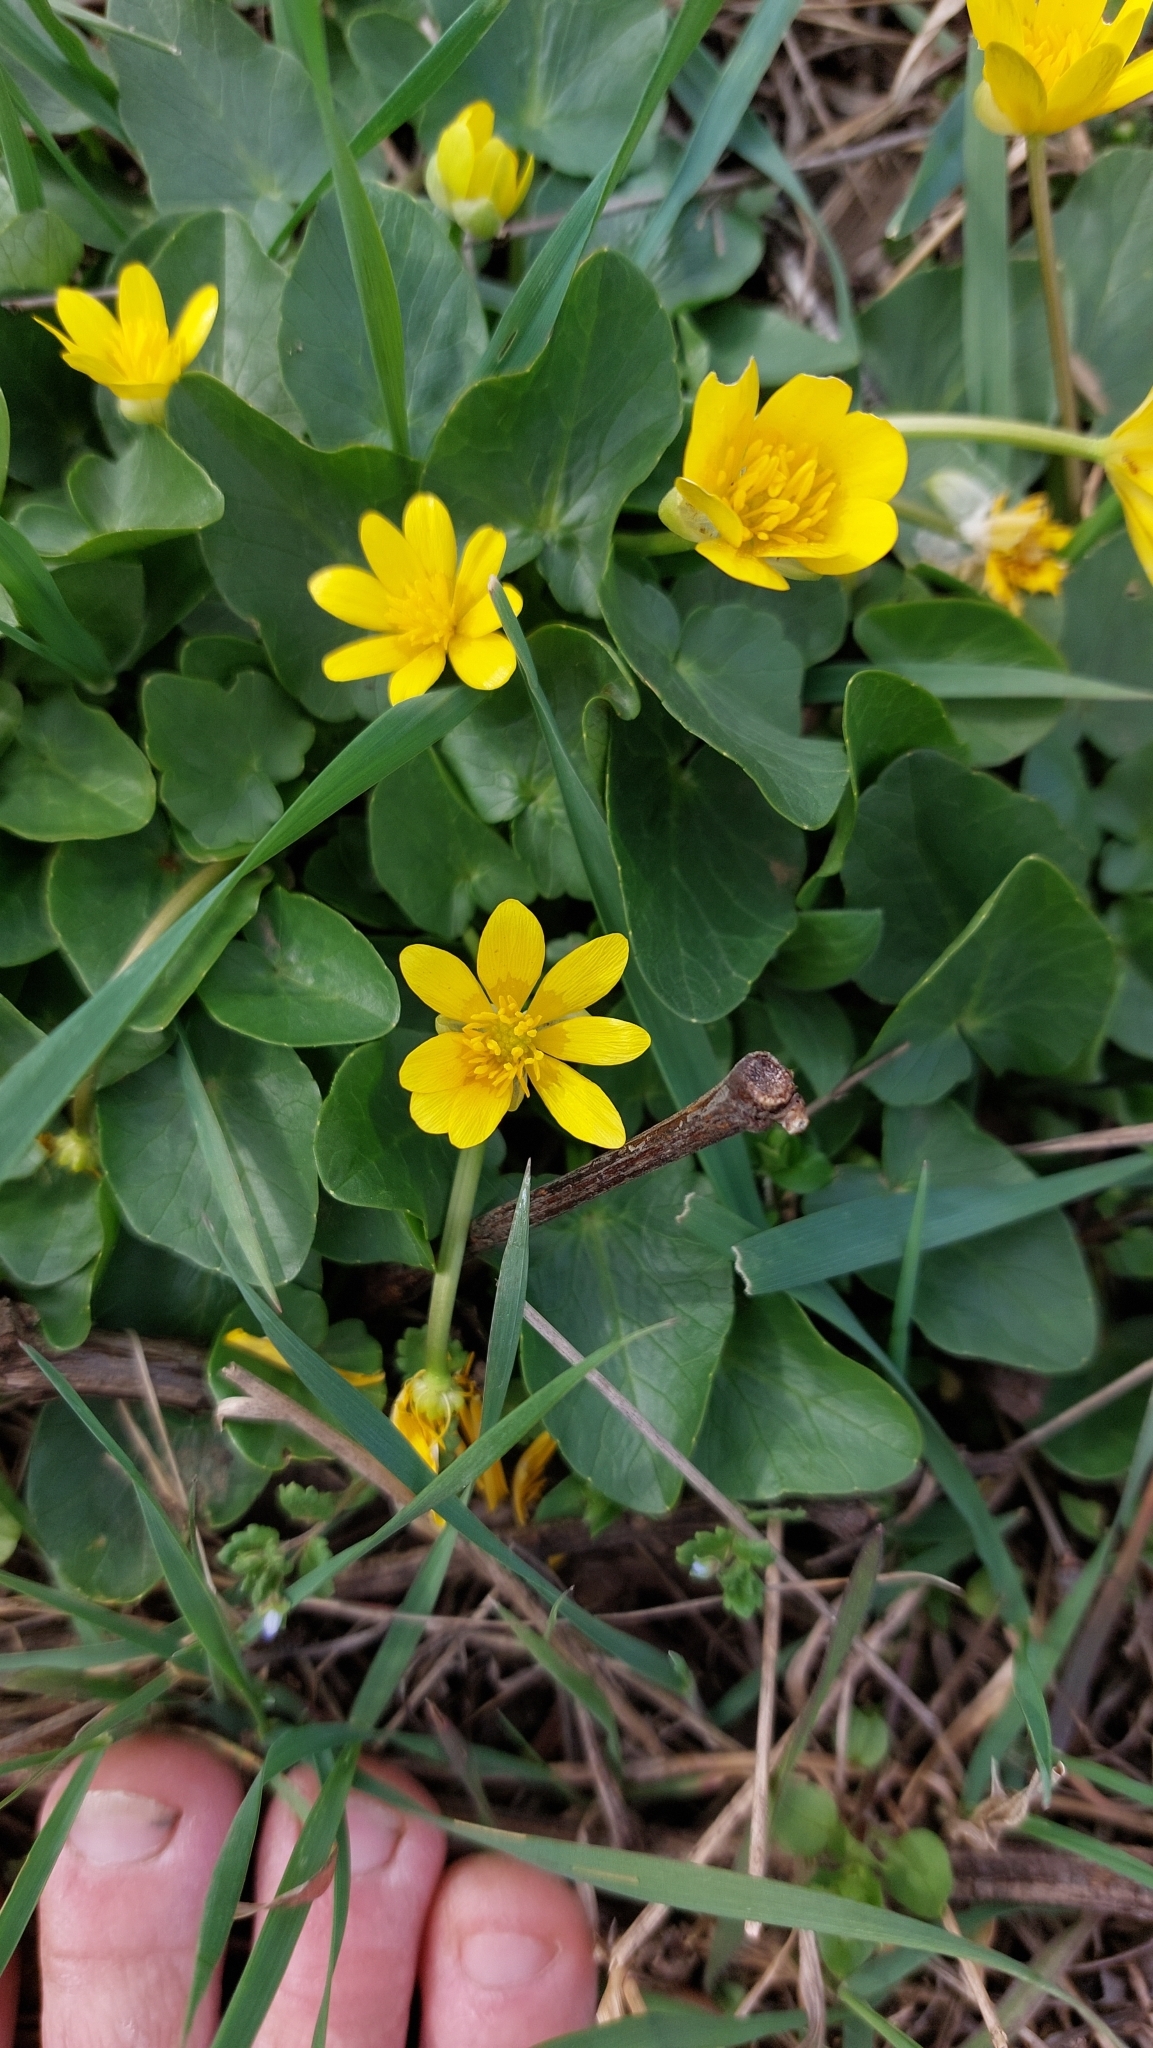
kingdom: Plantae
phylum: Tracheophyta
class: Magnoliopsida
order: Ranunculales
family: Ranunculaceae
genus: Ficaria
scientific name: Ficaria verna
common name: Lesser celandine
